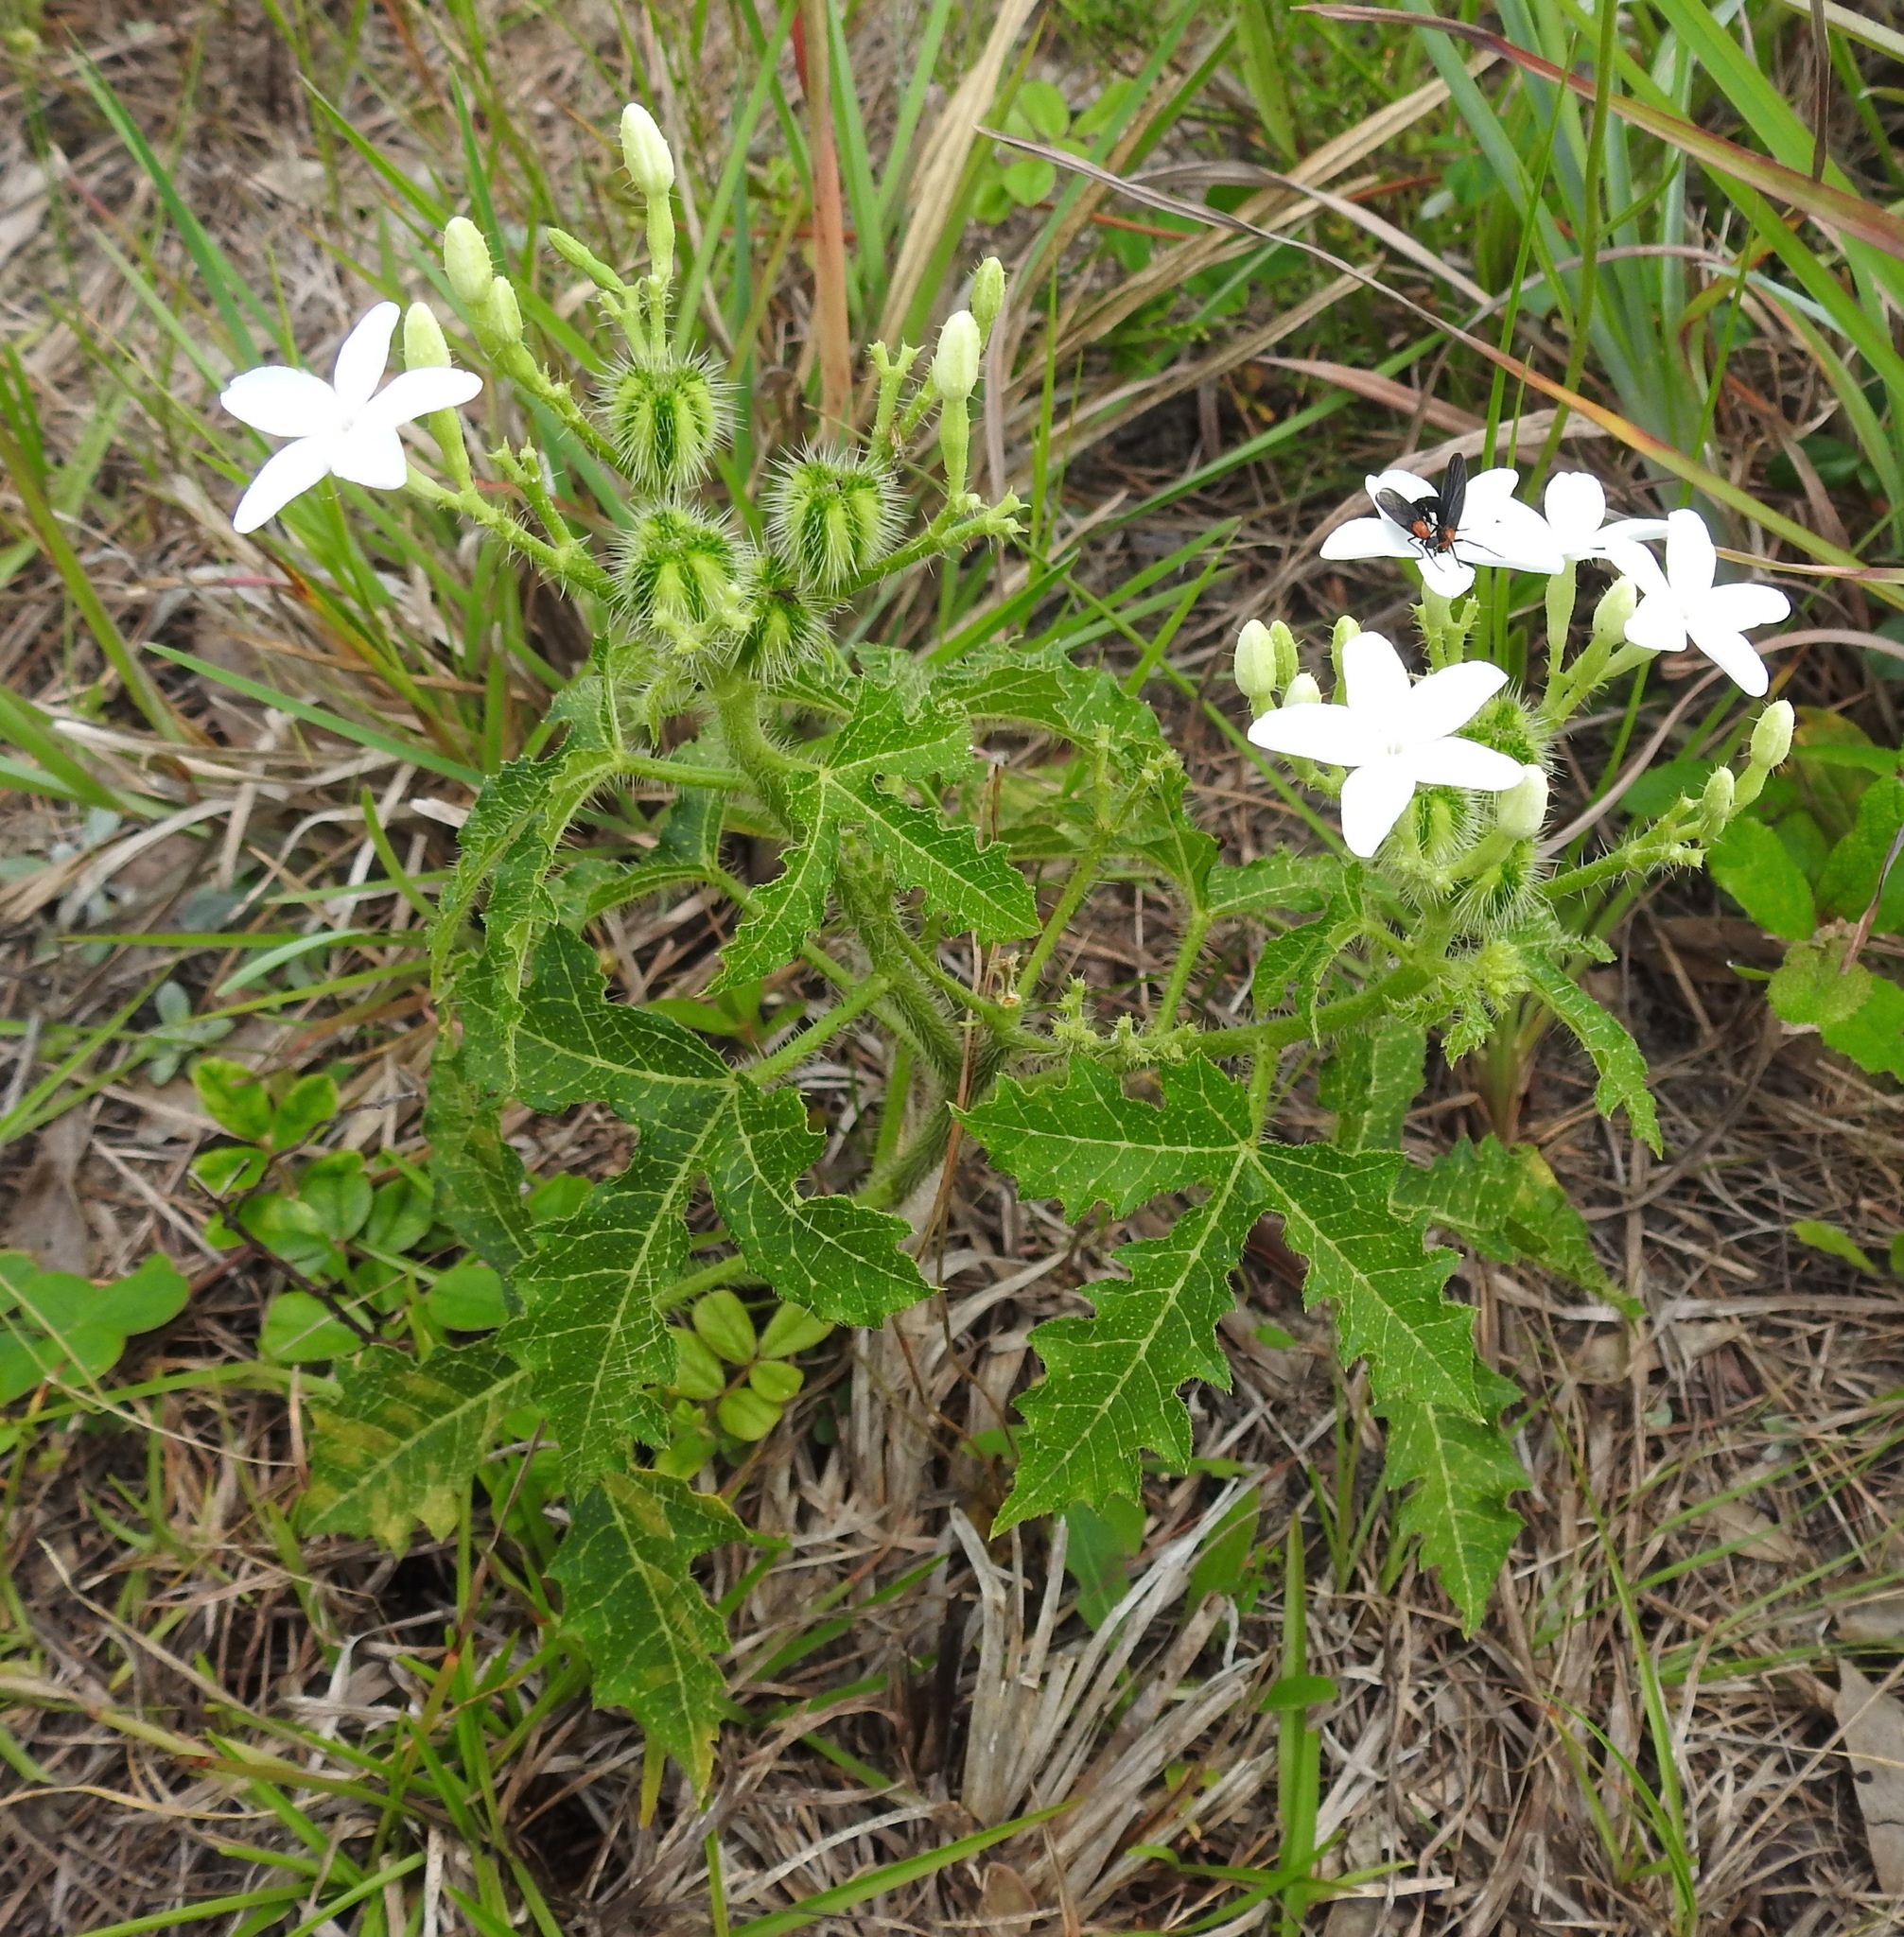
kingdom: Plantae
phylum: Tracheophyta
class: Magnoliopsida
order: Malpighiales
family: Euphorbiaceae
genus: Cnidoscolus
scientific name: Cnidoscolus stimulosus
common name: Bull-nettle
